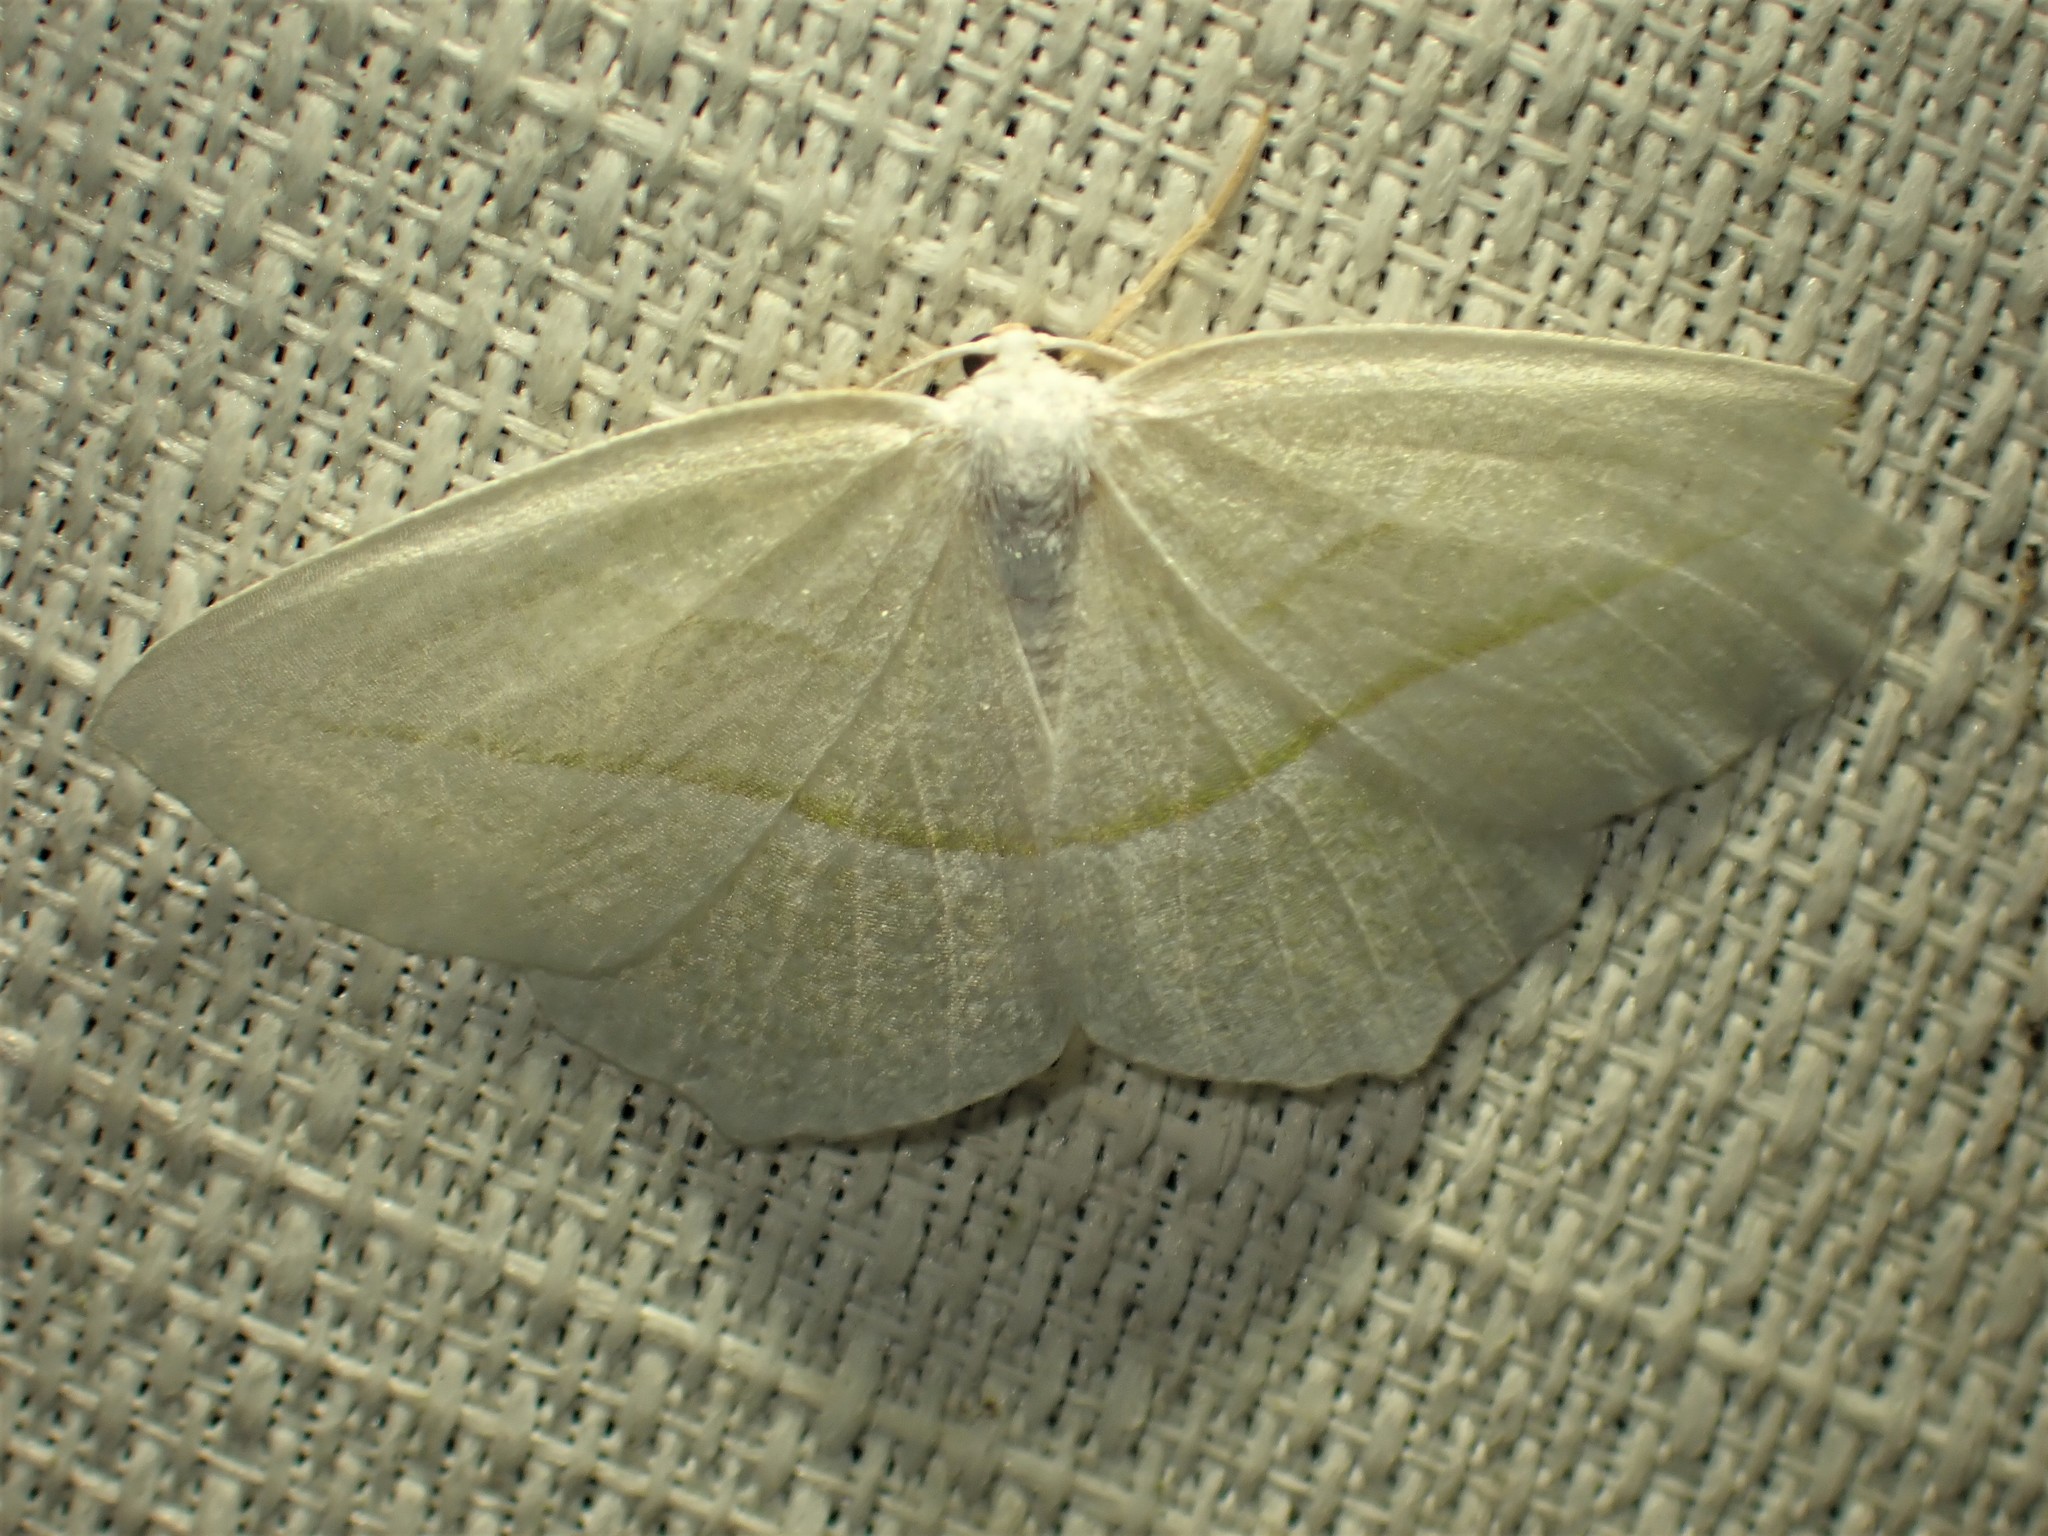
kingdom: Animalia
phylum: Arthropoda
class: Insecta
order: Lepidoptera
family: Geometridae
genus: Campaea
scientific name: Campaea perlata
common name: Fringed looper
